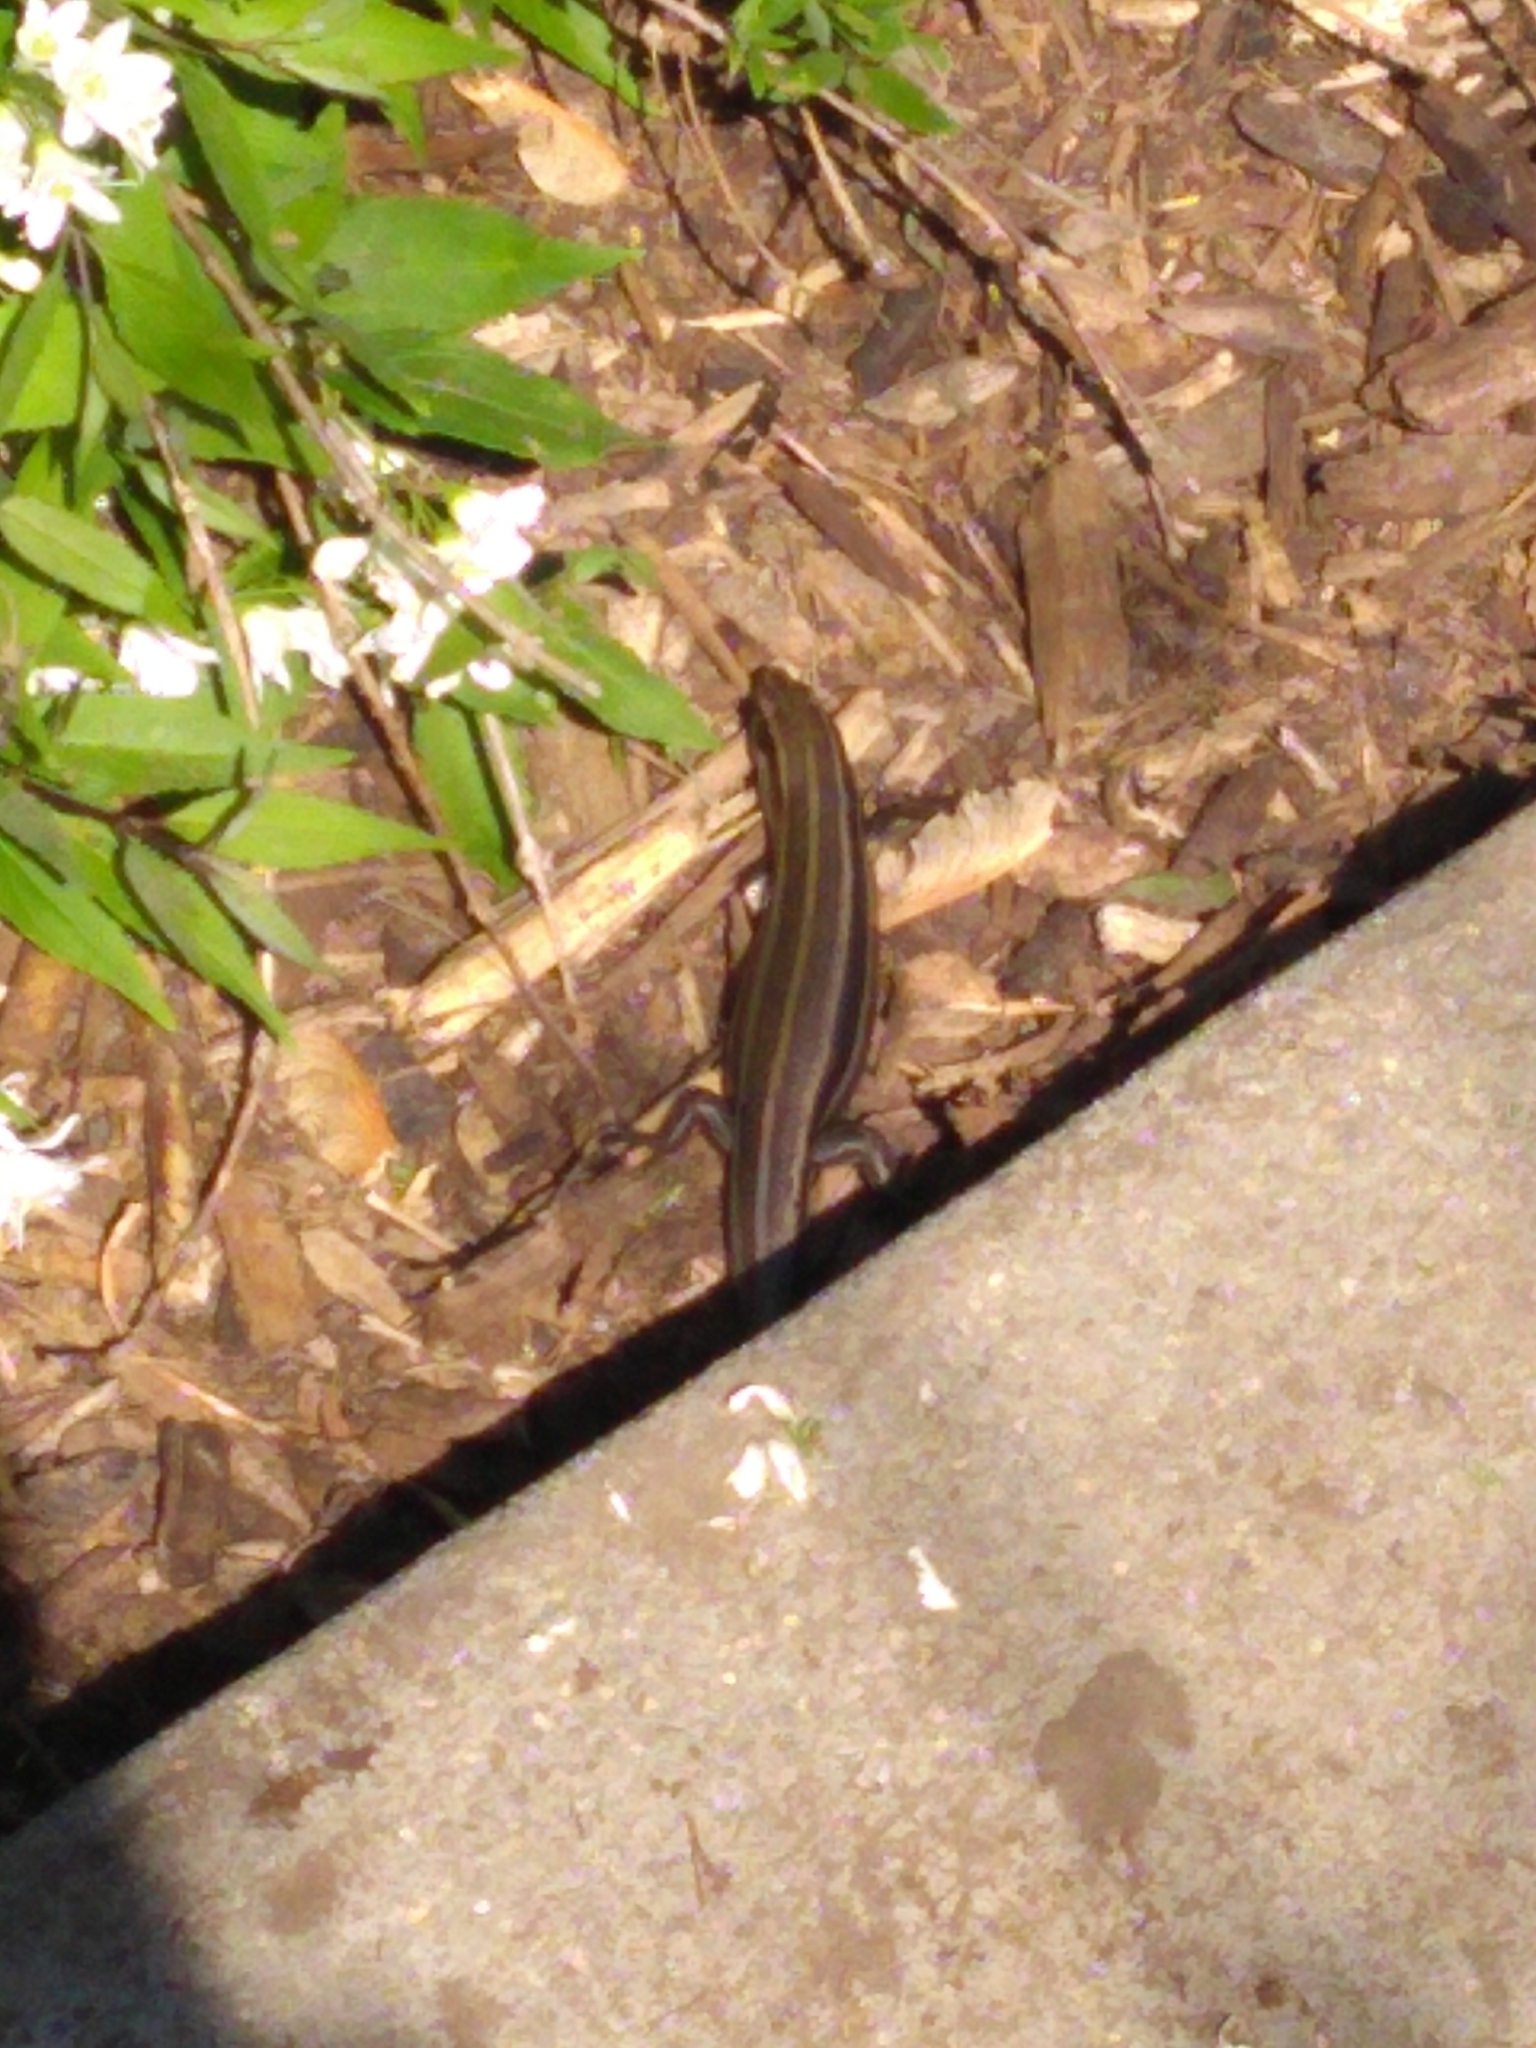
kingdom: Animalia
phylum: Chordata
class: Squamata
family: Scincidae
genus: Plestiodon
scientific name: Plestiodon fasciatus
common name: Five-lined skink
